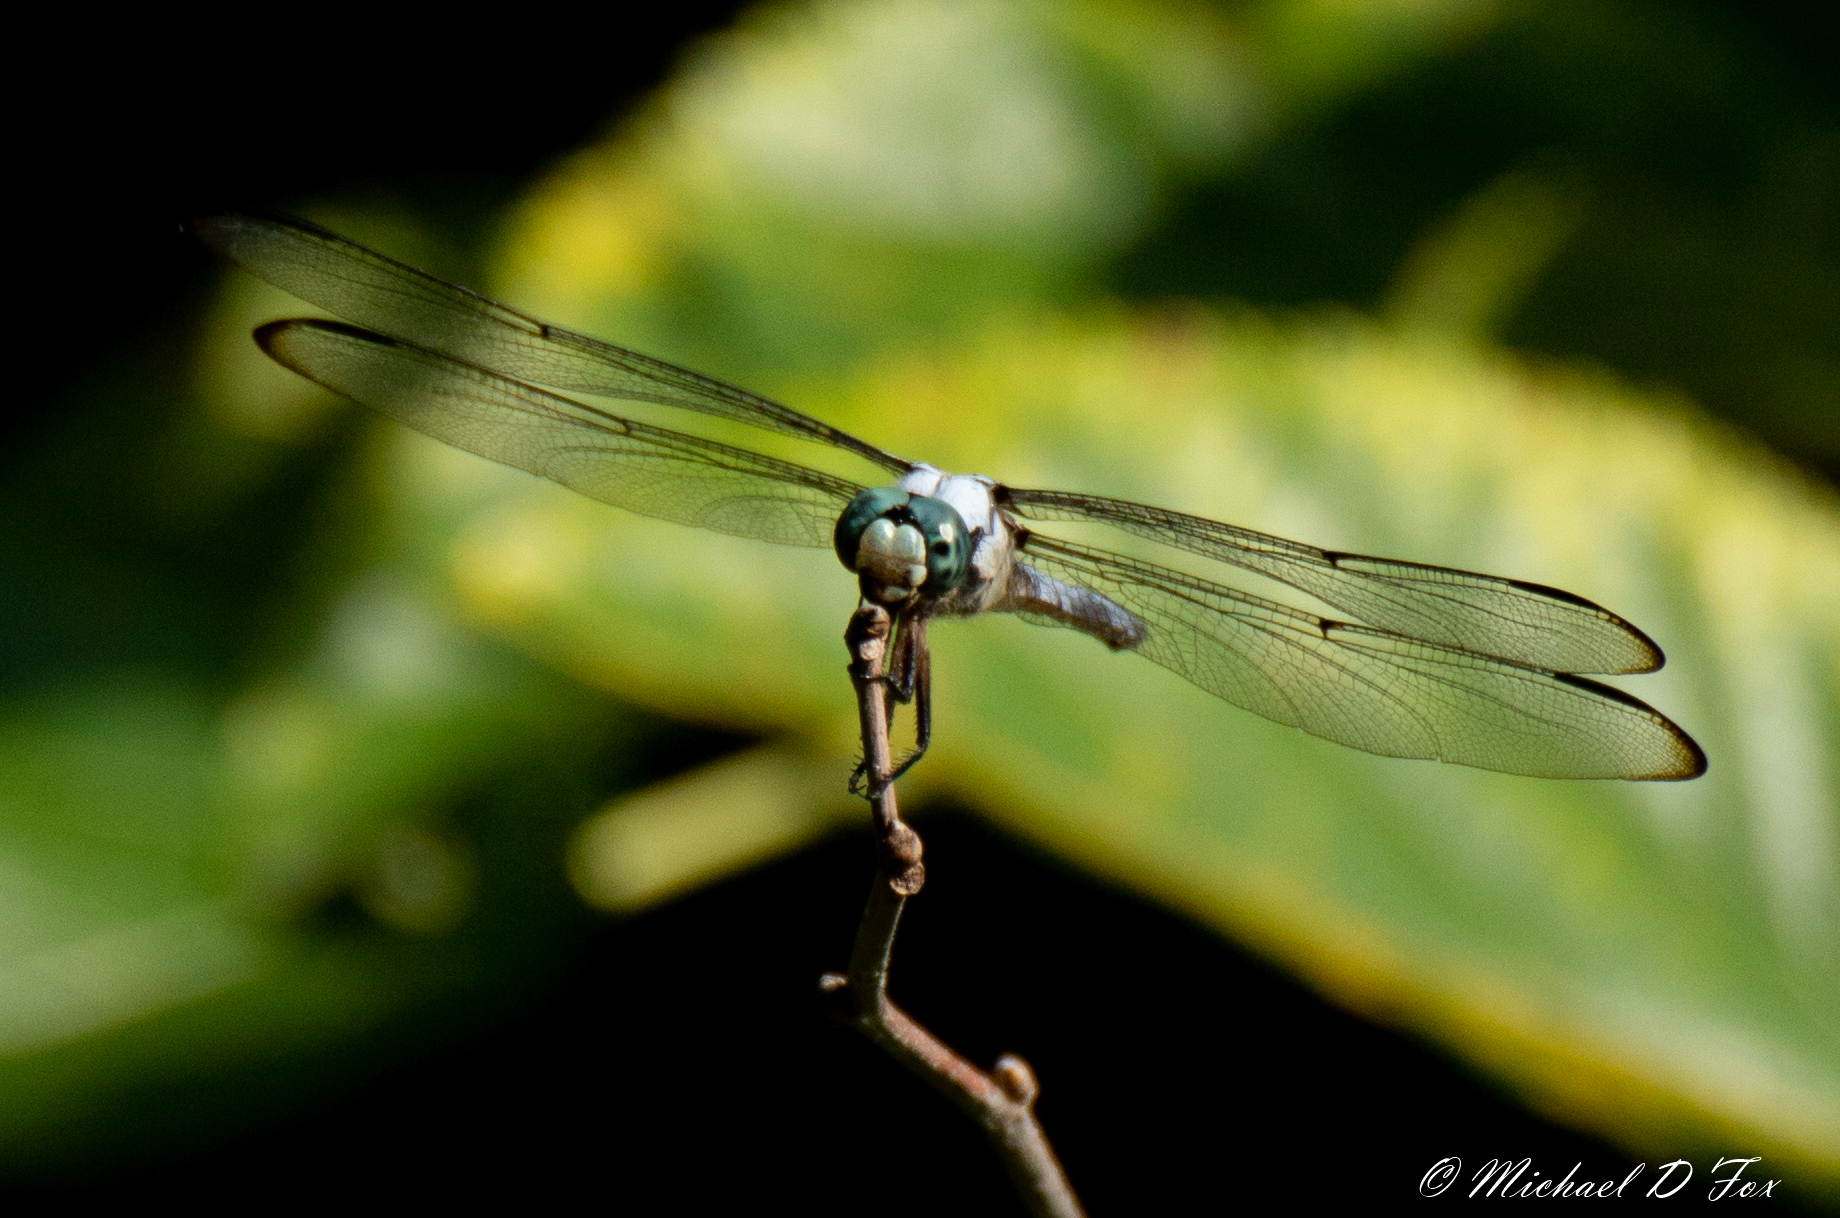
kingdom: Animalia
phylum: Arthropoda
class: Insecta
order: Odonata
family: Libellulidae
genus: Libellula
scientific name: Libellula vibrans
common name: Great blue skimmer
